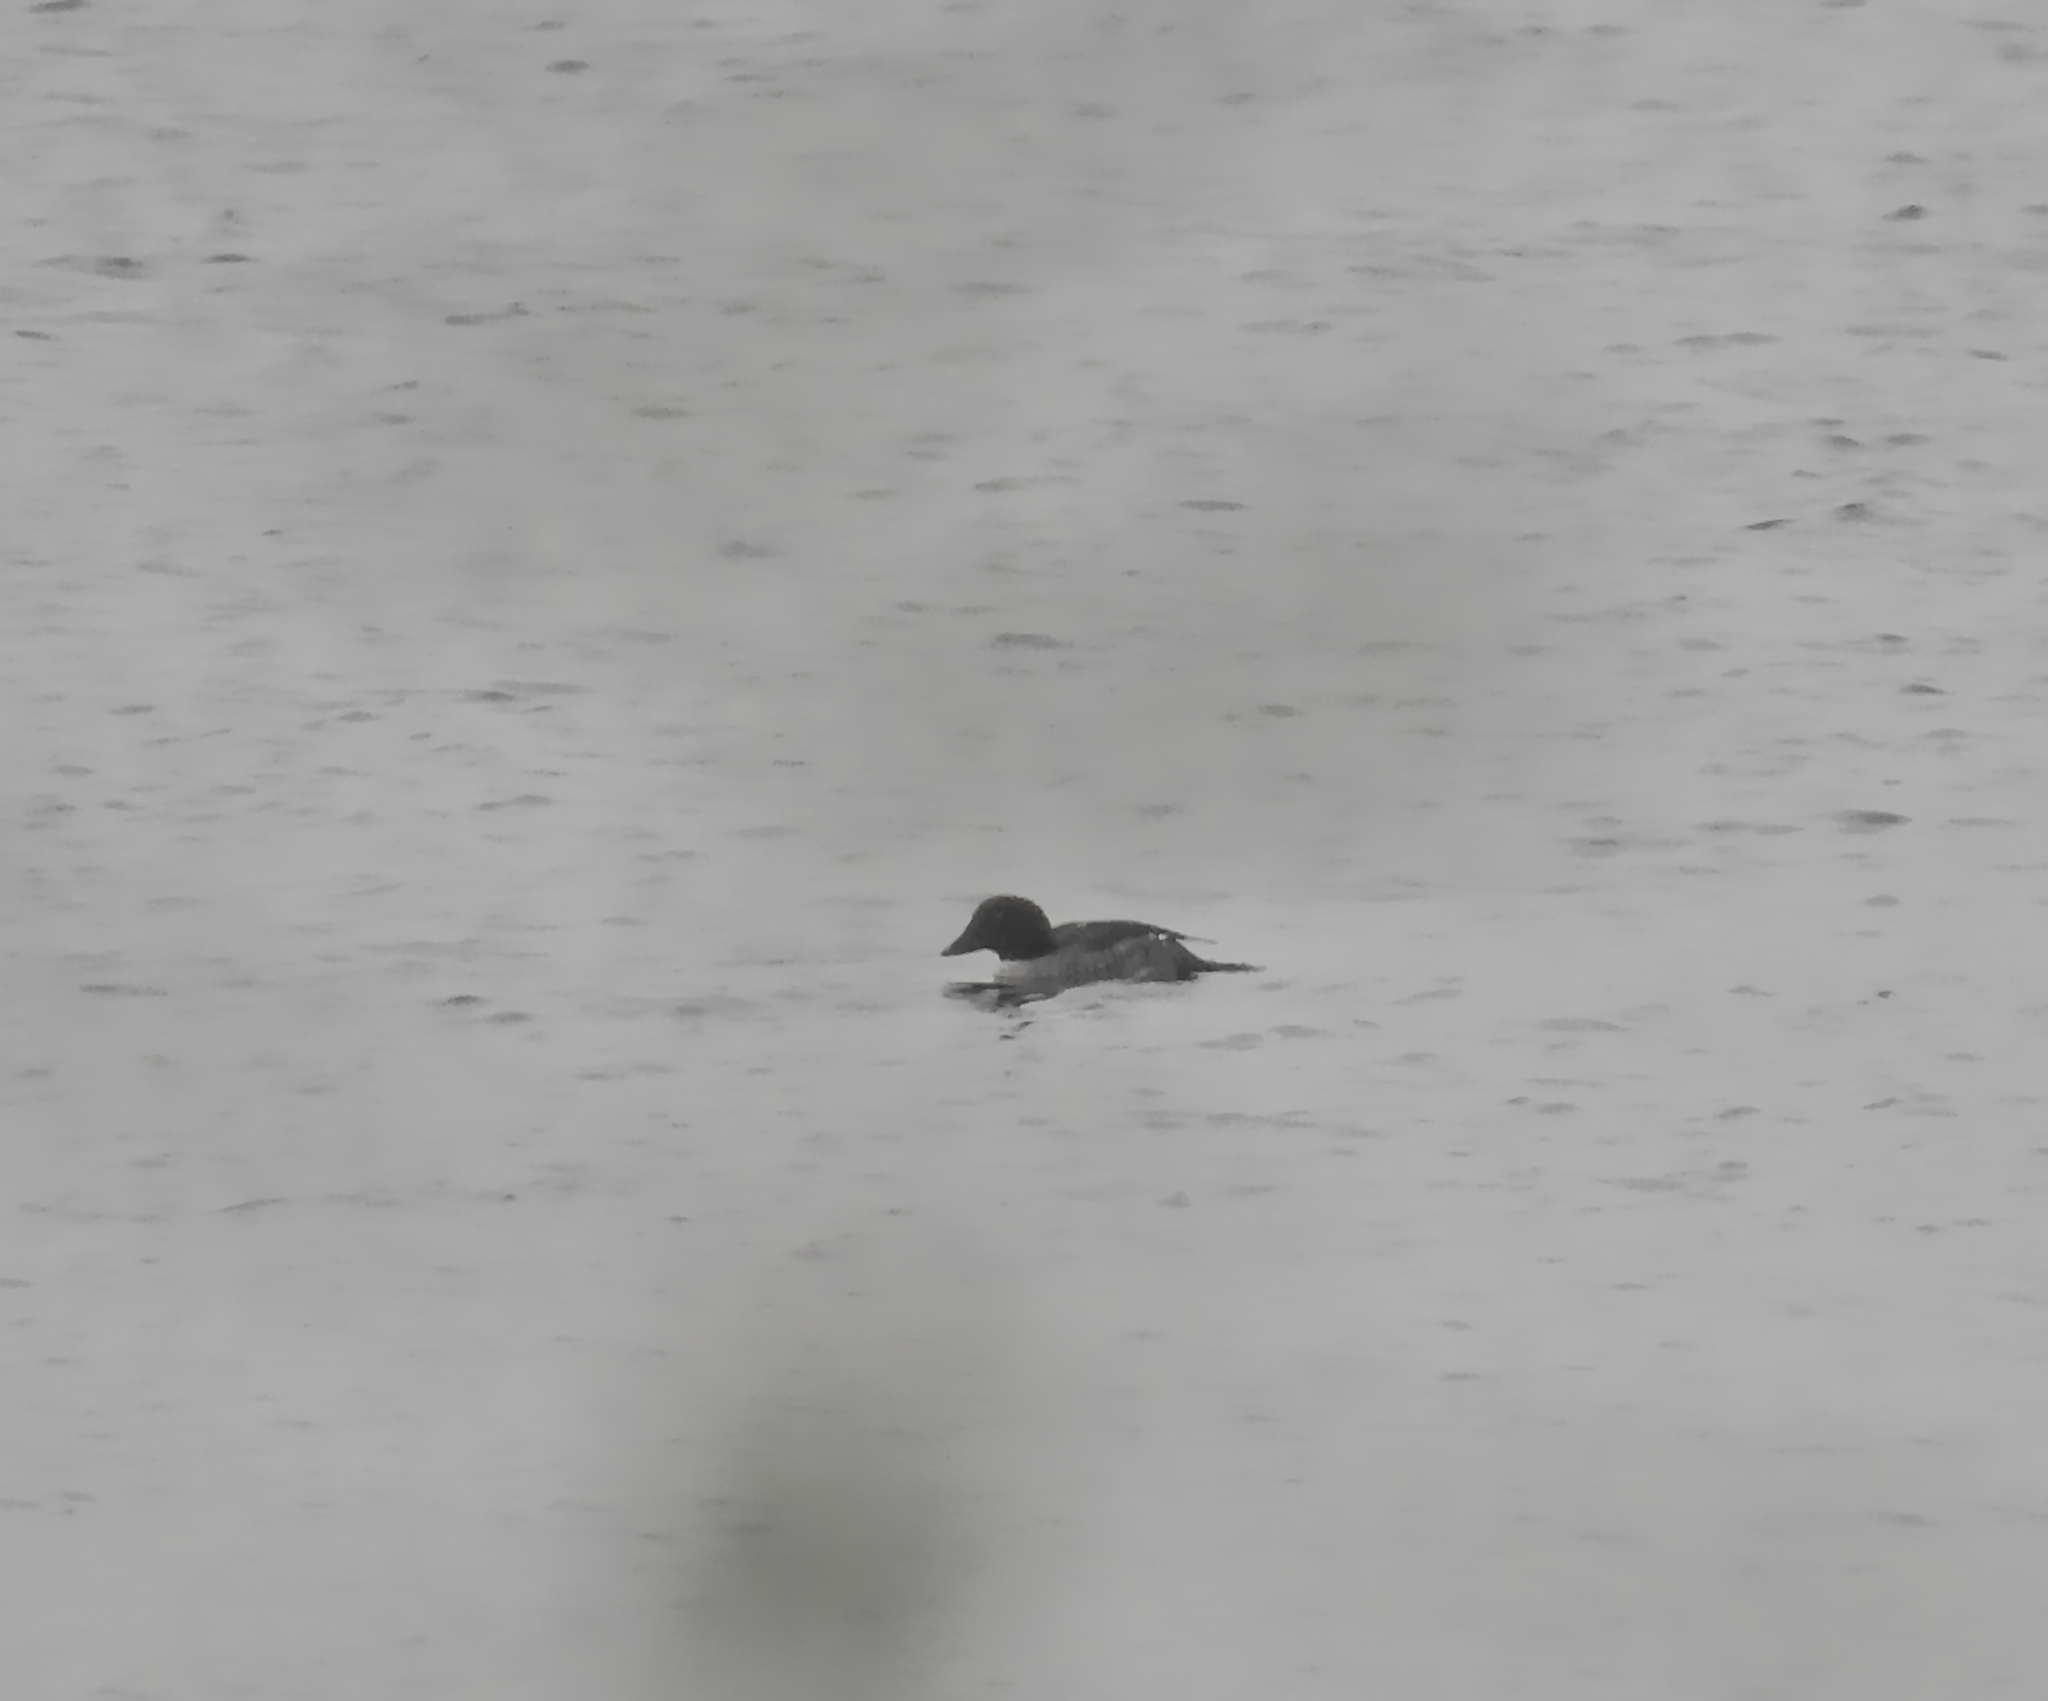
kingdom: Animalia
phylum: Chordata
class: Aves
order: Anseriformes
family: Anatidae
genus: Bucephala
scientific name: Bucephala clangula
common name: Common goldeneye
